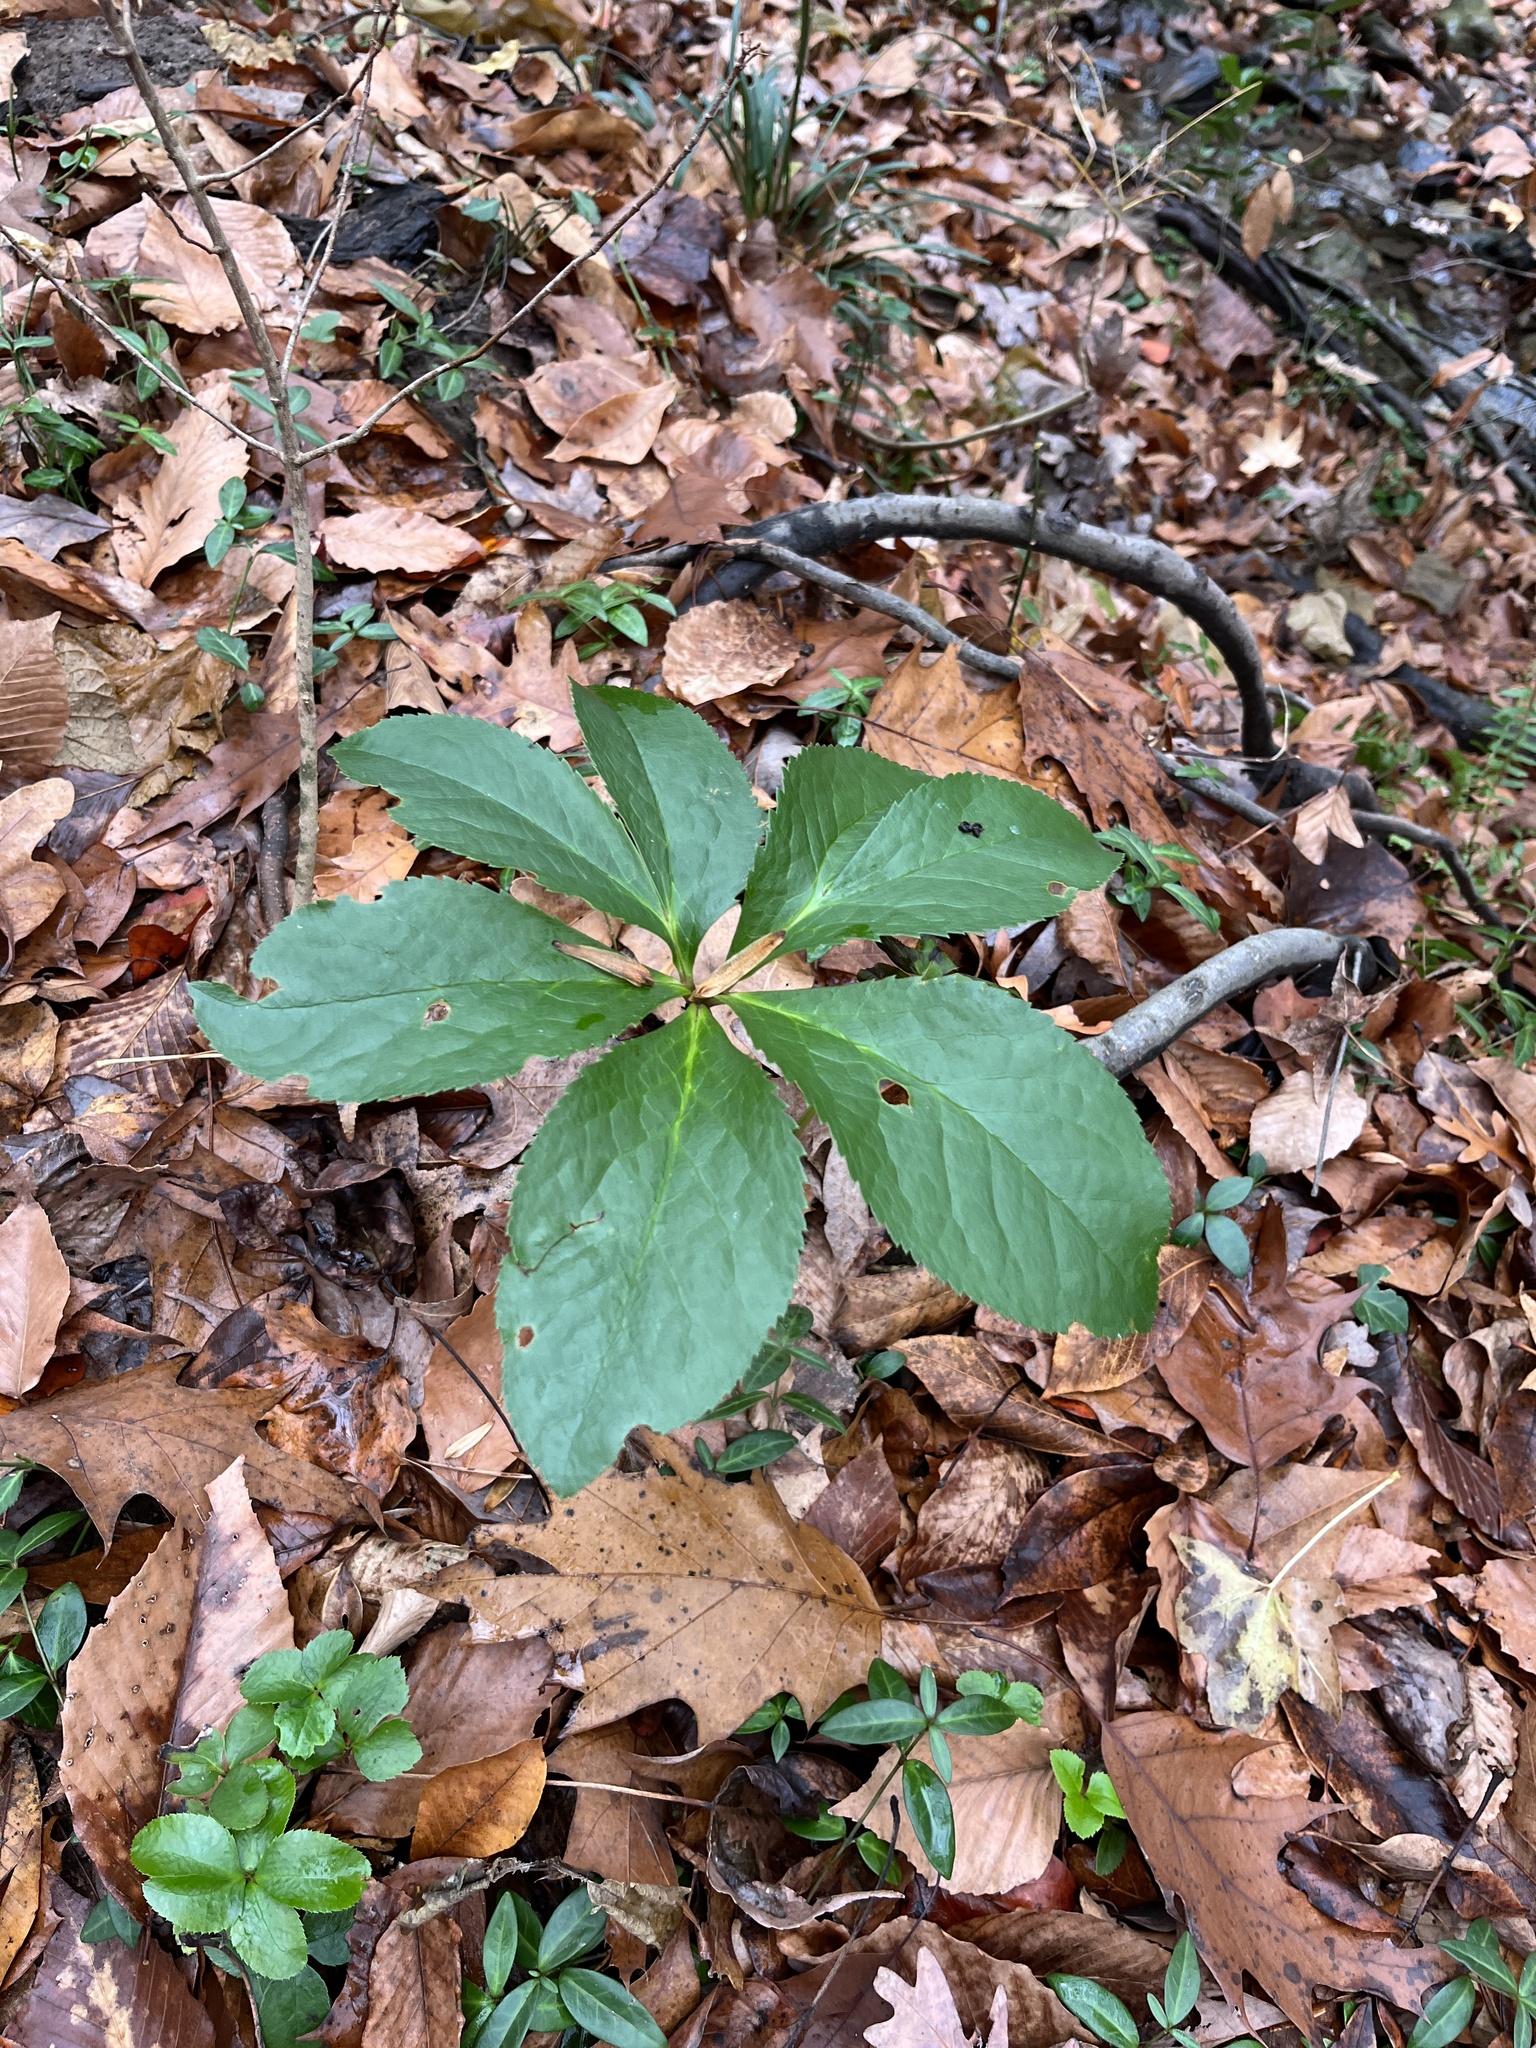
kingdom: Plantae
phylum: Tracheophyta
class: Magnoliopsida
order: Ranunculales
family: Ranunculaceae
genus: Helleborus
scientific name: Helleborus orientalis
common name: Lenten-rose
